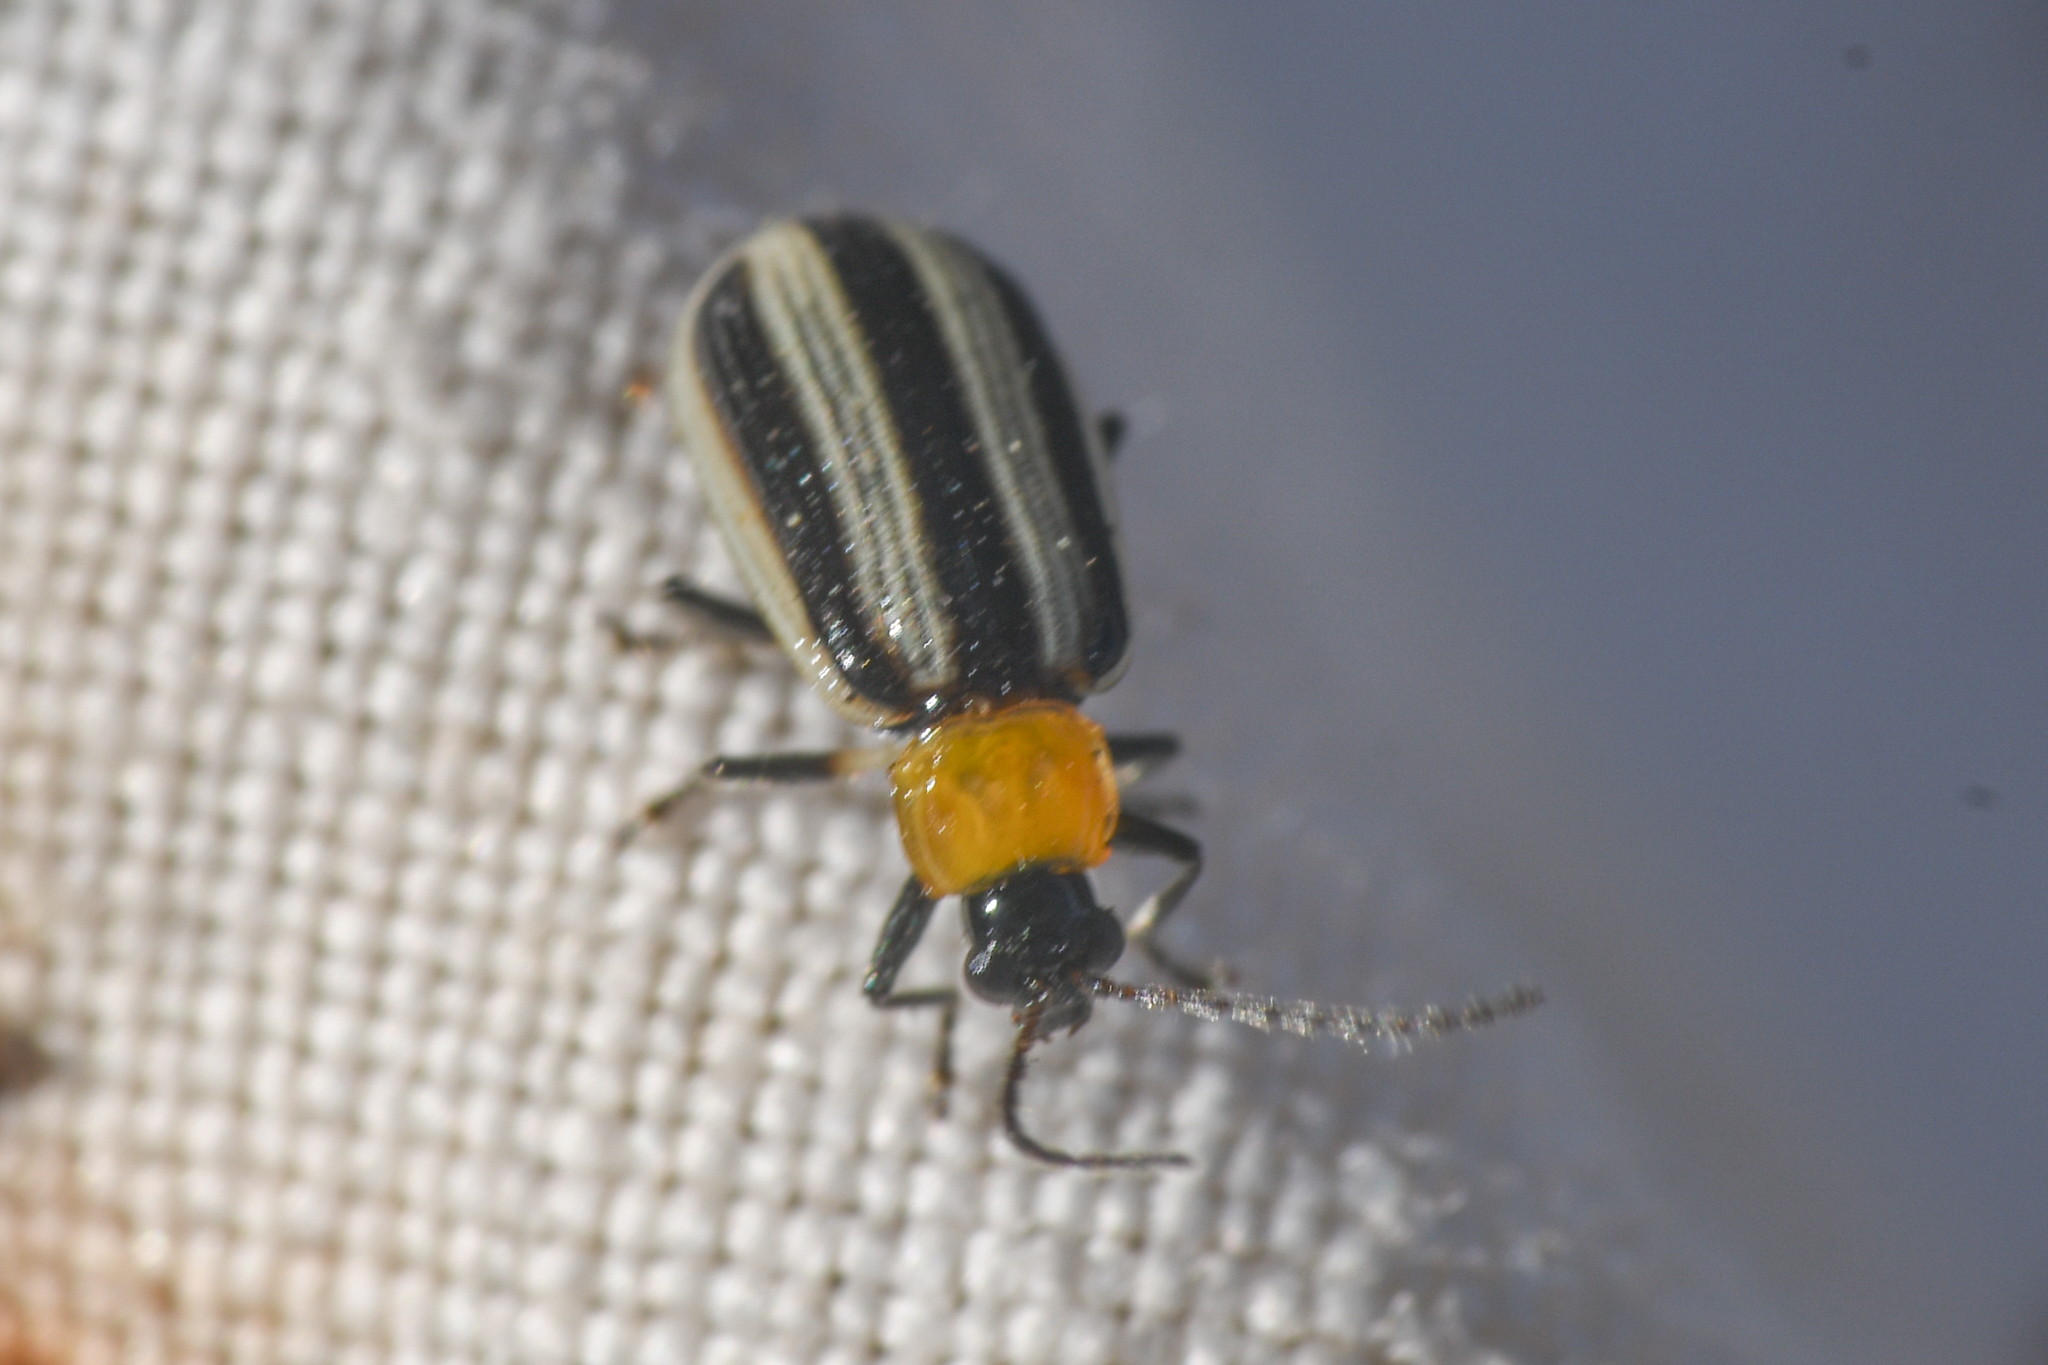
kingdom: Animalia
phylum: Arthropoda
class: Insecta
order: Coleoptera
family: Chrysomelidae
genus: Acalymma
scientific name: Acalymma trivittatum
